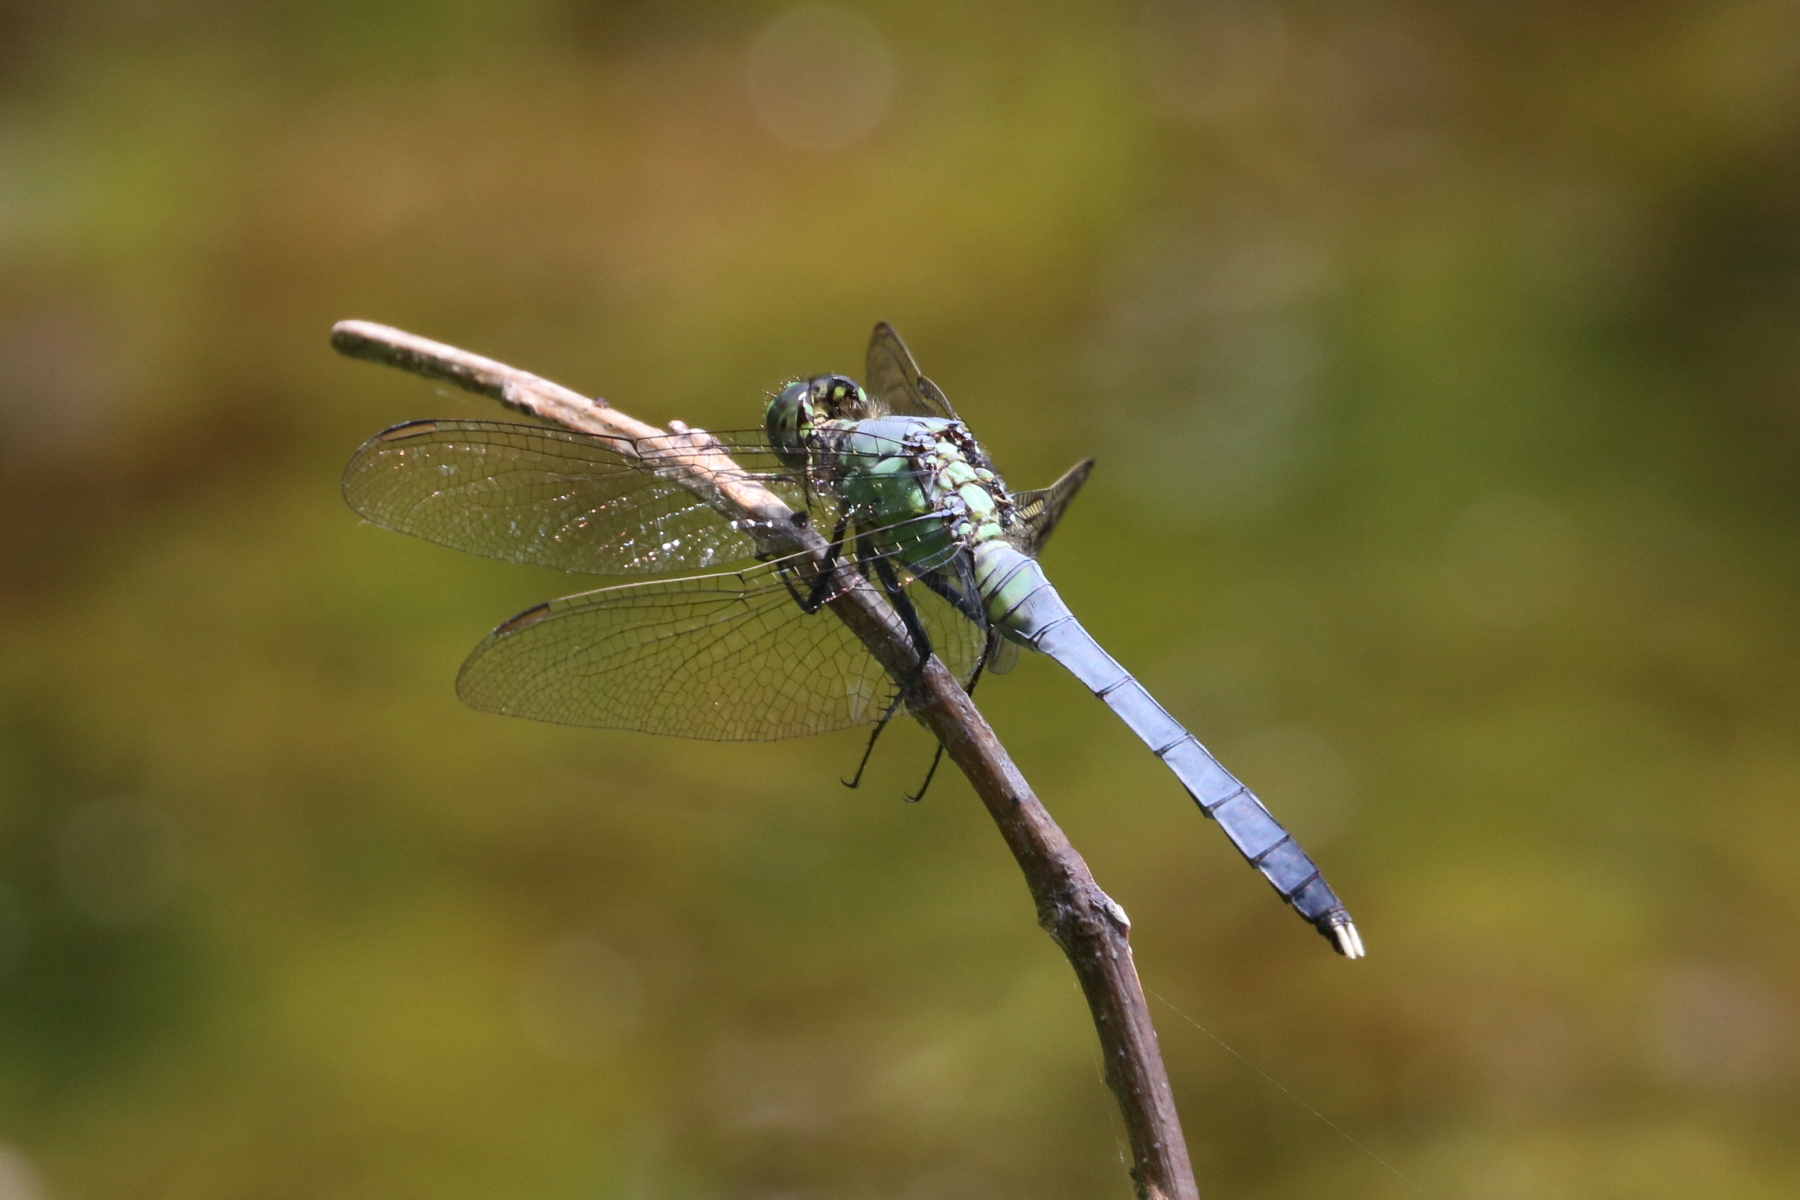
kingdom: Animalia
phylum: Arthropoda
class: Insecta
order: Odonata
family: Libellulidae
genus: Erythemis
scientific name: Erythemis simplicicollis
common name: Eastern pondhawk
